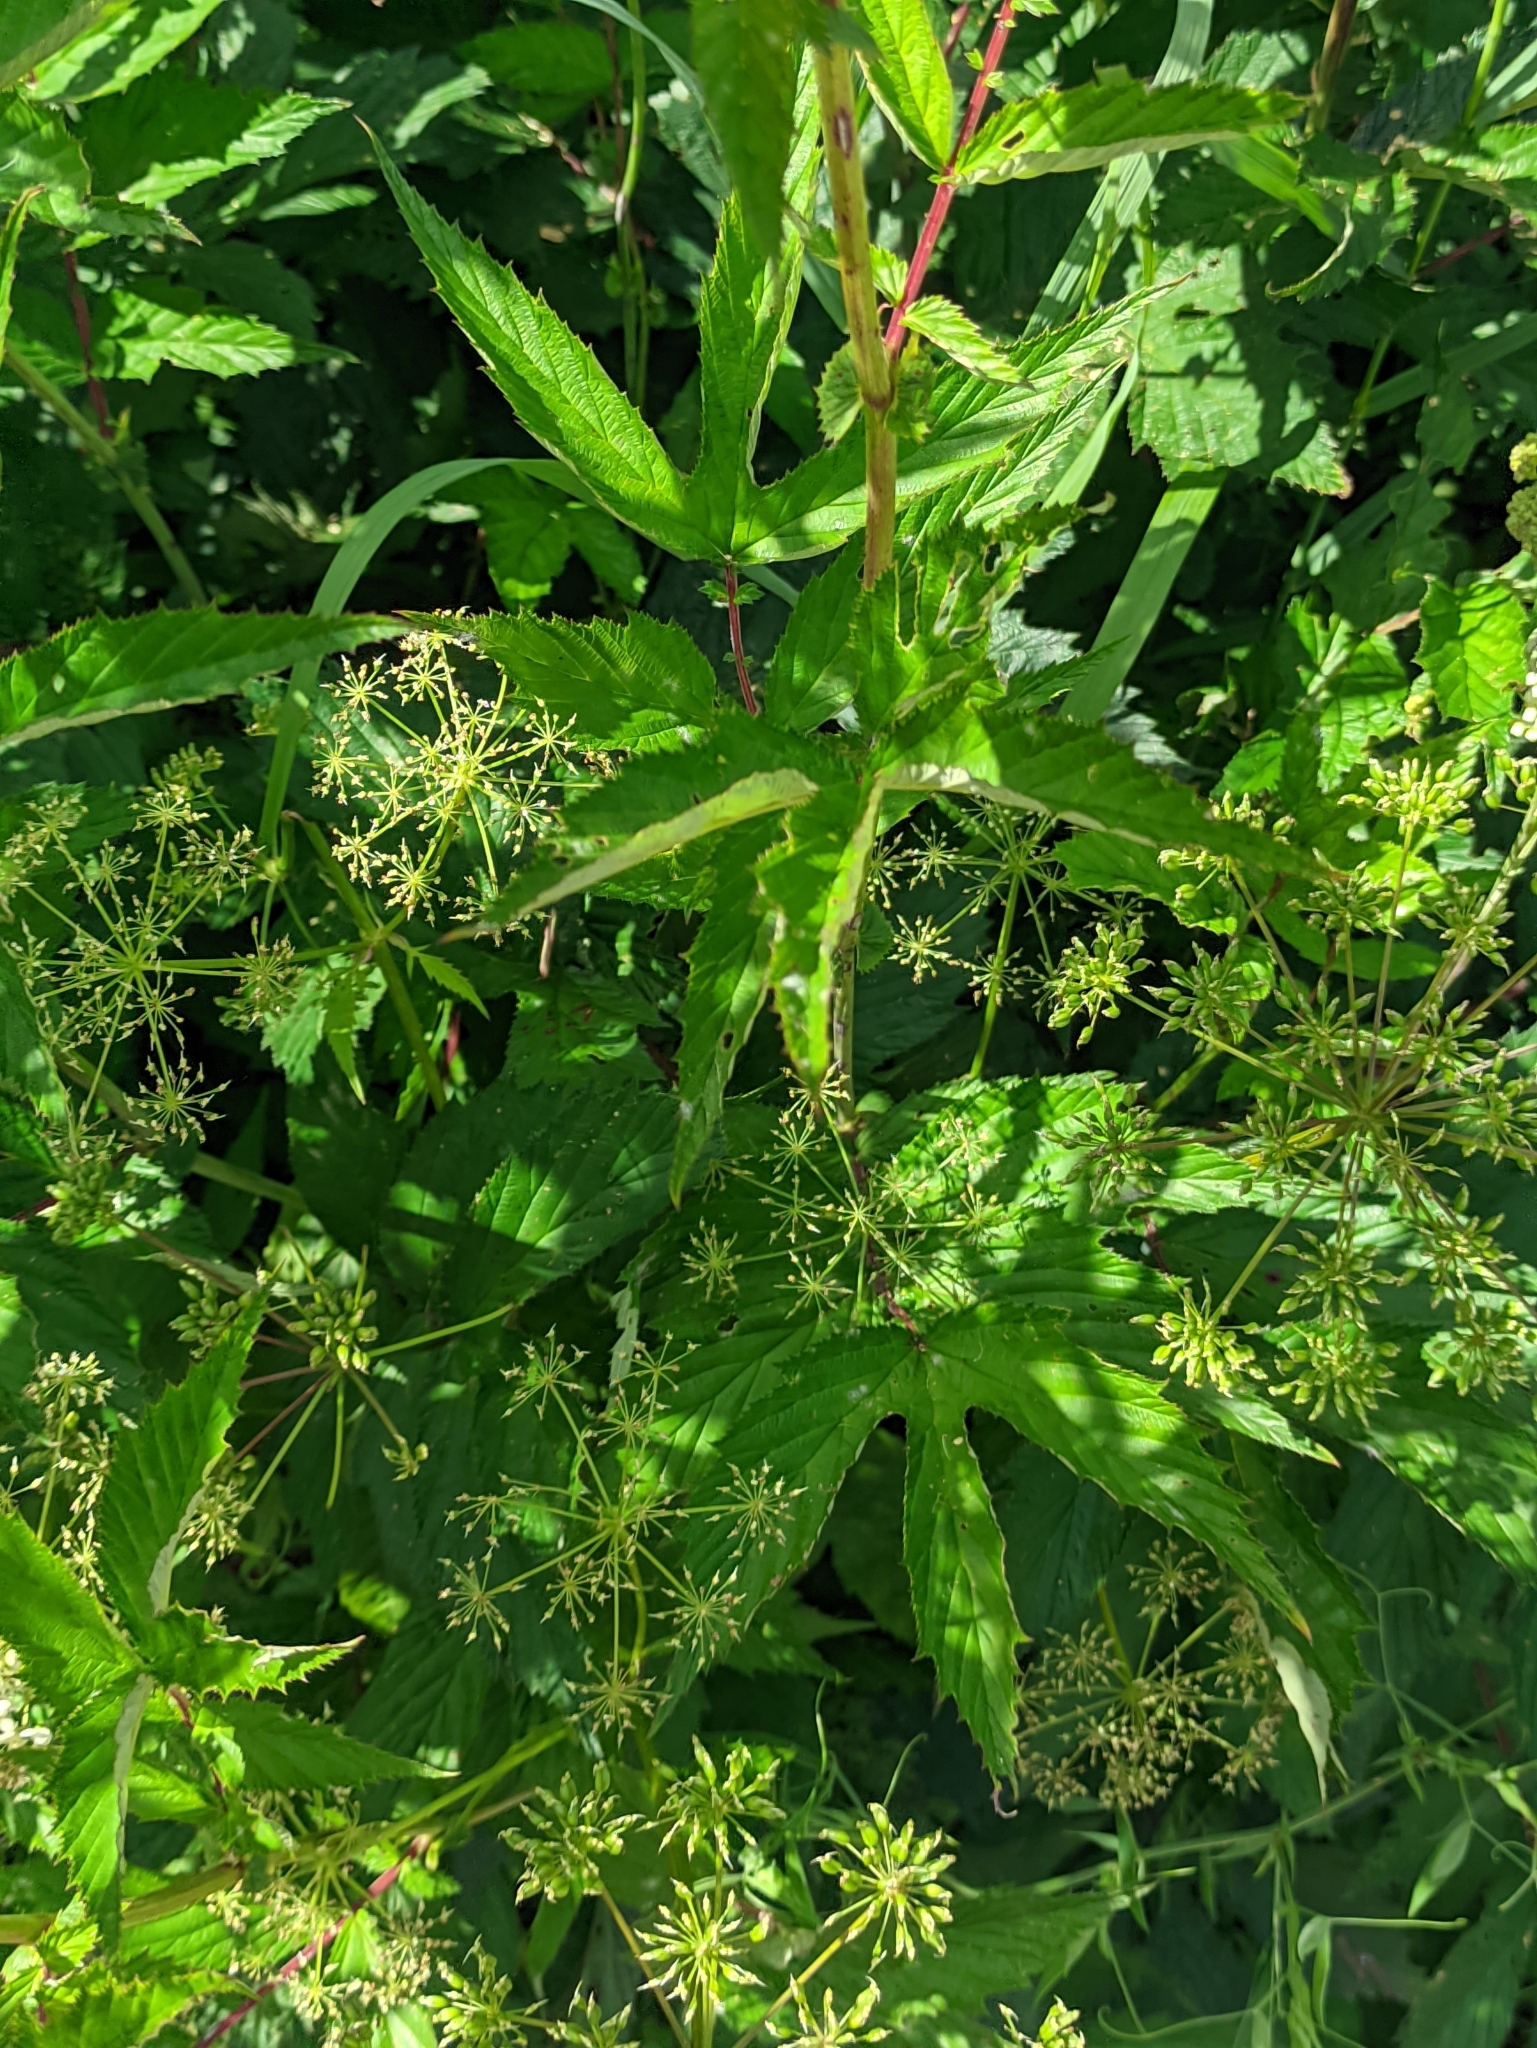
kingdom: Plantae
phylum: Tracheophyta
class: Magnoliopsida
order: Rosales
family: Rosaceae
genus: Filipendula
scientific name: Filipendula ulmaria
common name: Meadowsweet
